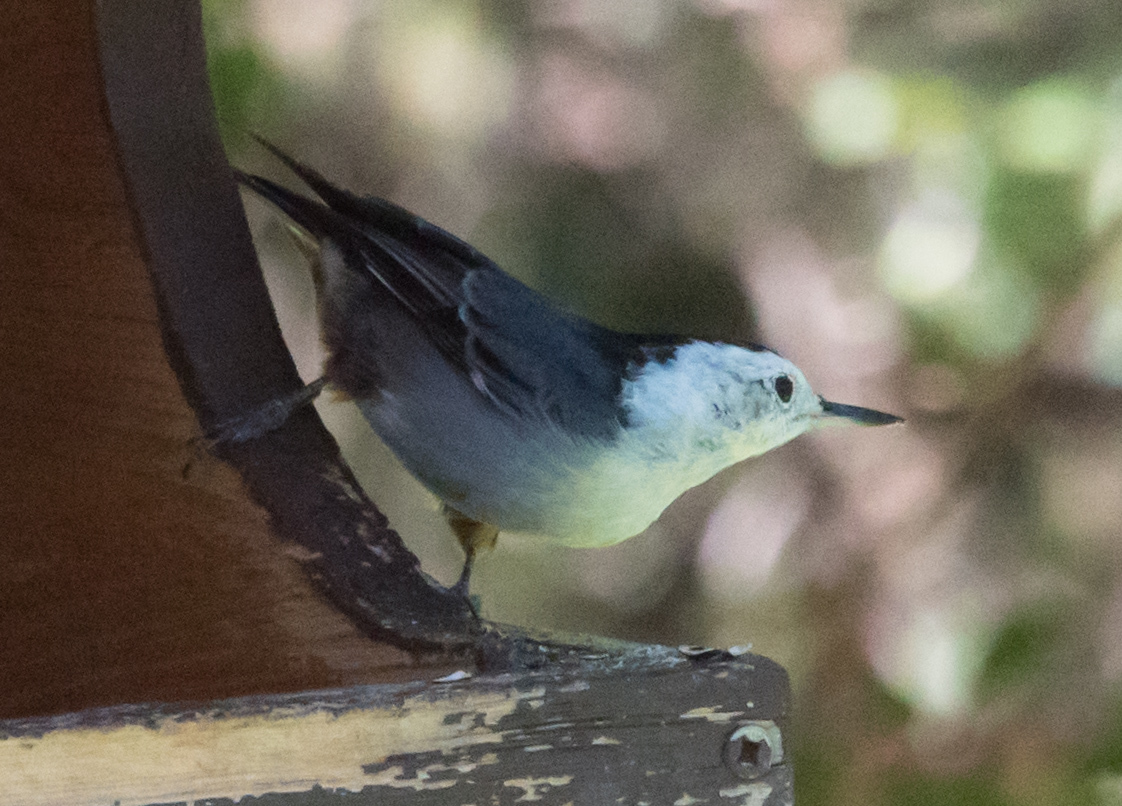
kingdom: Animalia
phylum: Chordata
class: Aves
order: Passeriformes
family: Sittidae
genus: Sitta
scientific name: Sitta carolinensis
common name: White-breasted nuthatch
